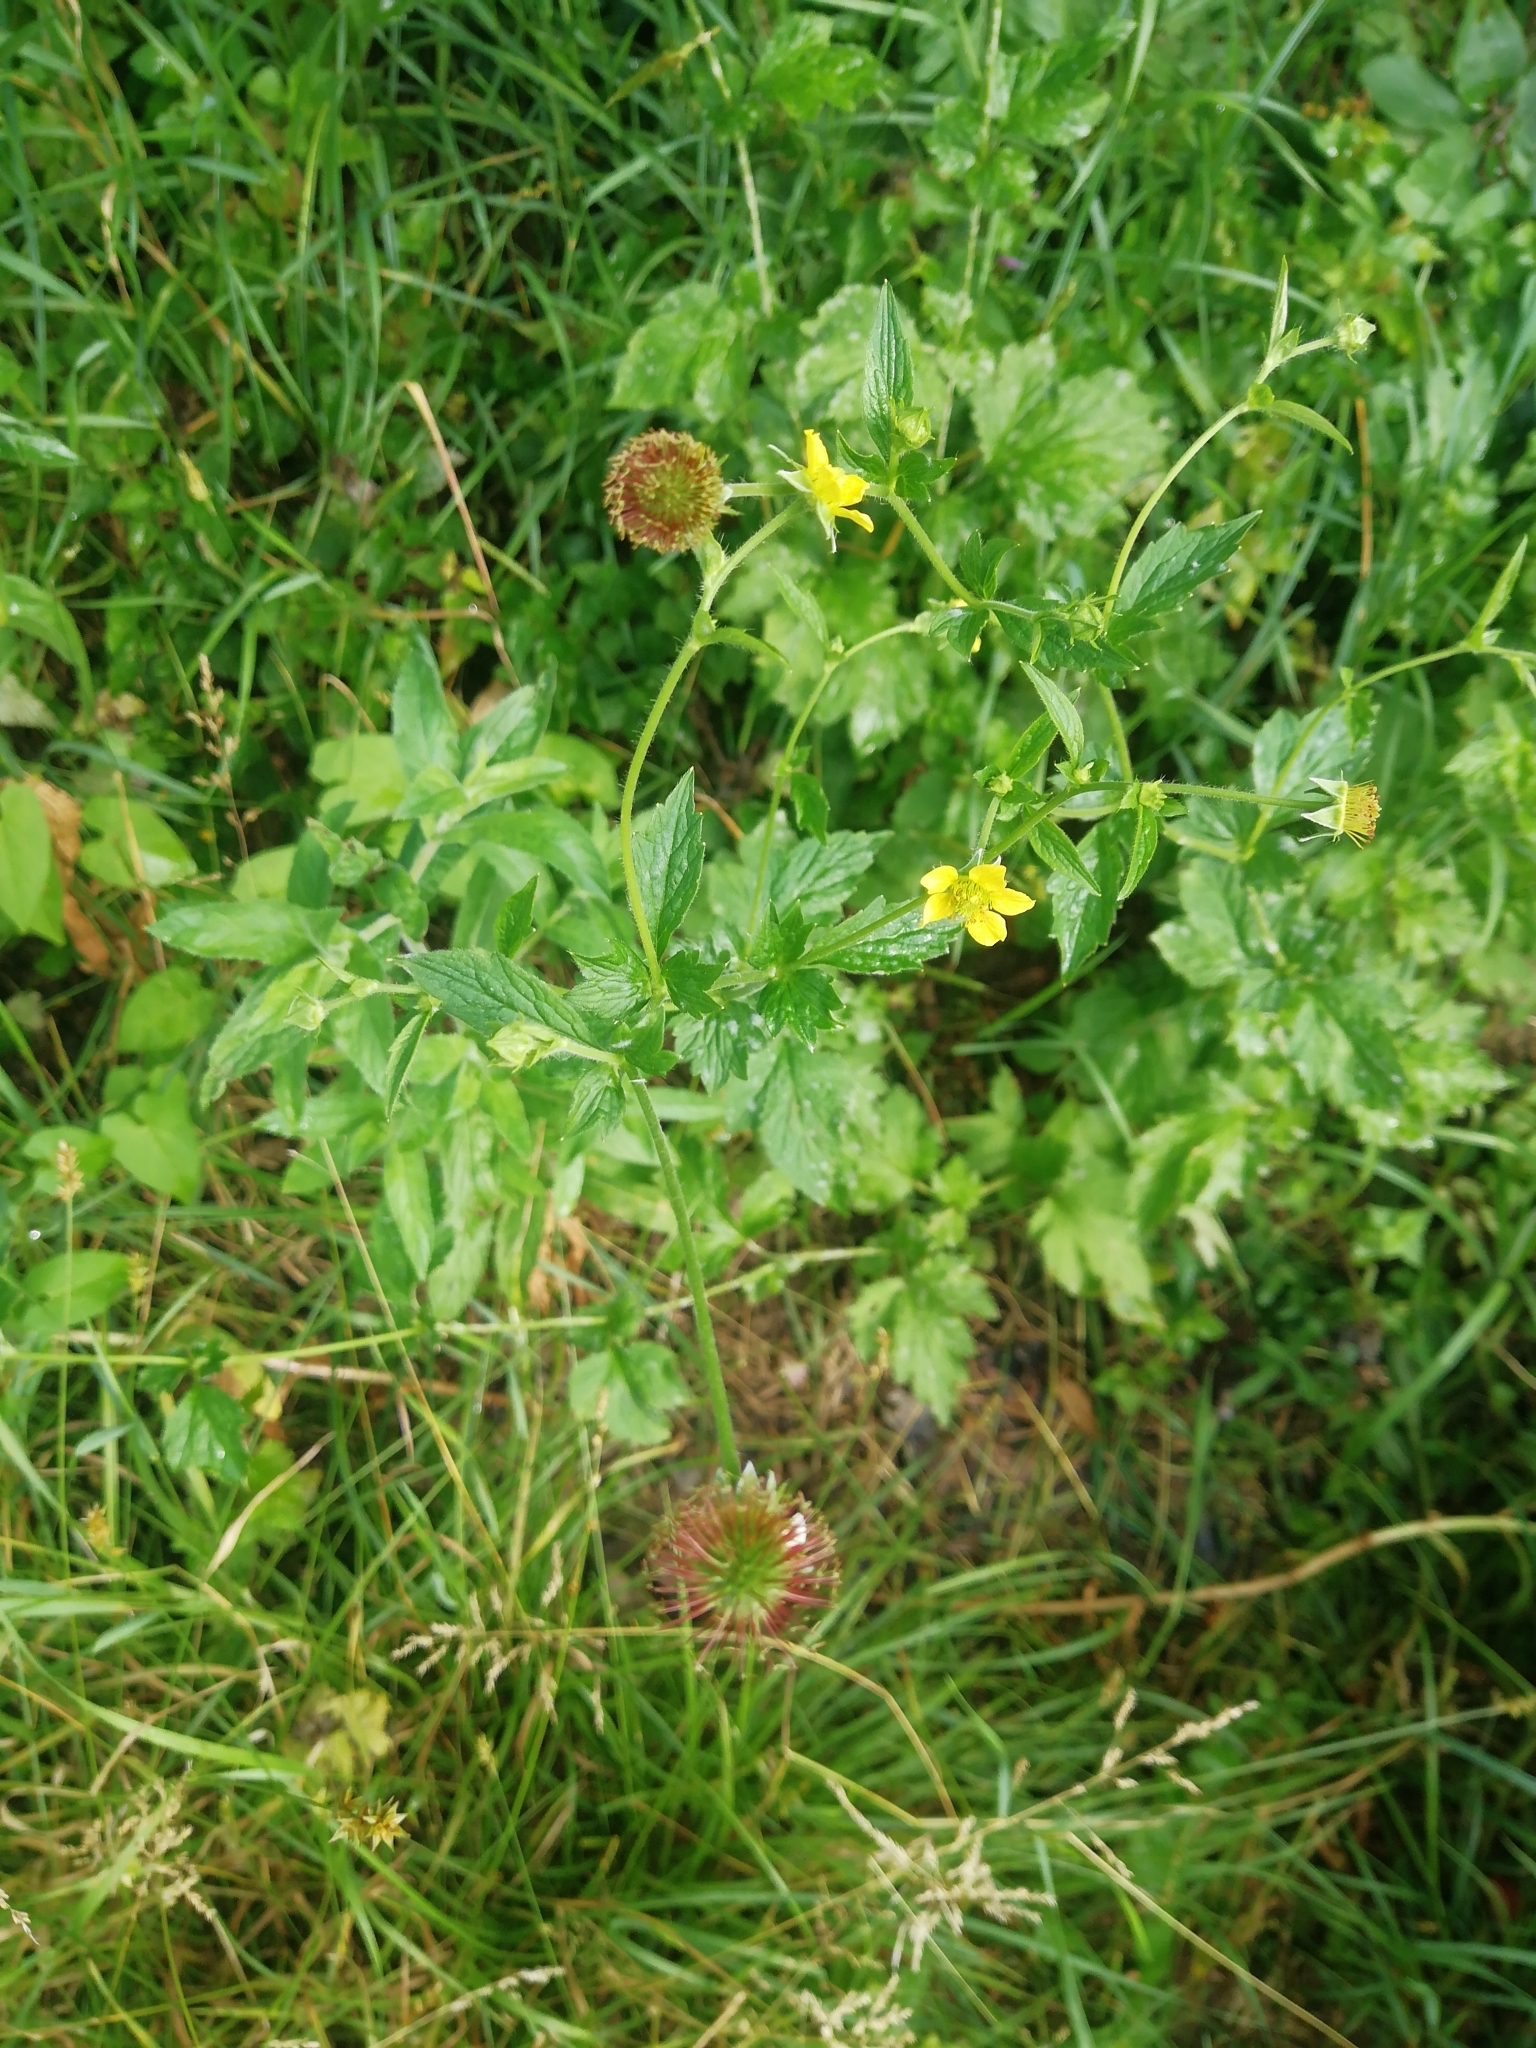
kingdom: Plantae
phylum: Tracheophyta
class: Magnoliopsida
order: Rosales
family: Rosaceae
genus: Geum
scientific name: Geum urbanum
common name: Wood avens
